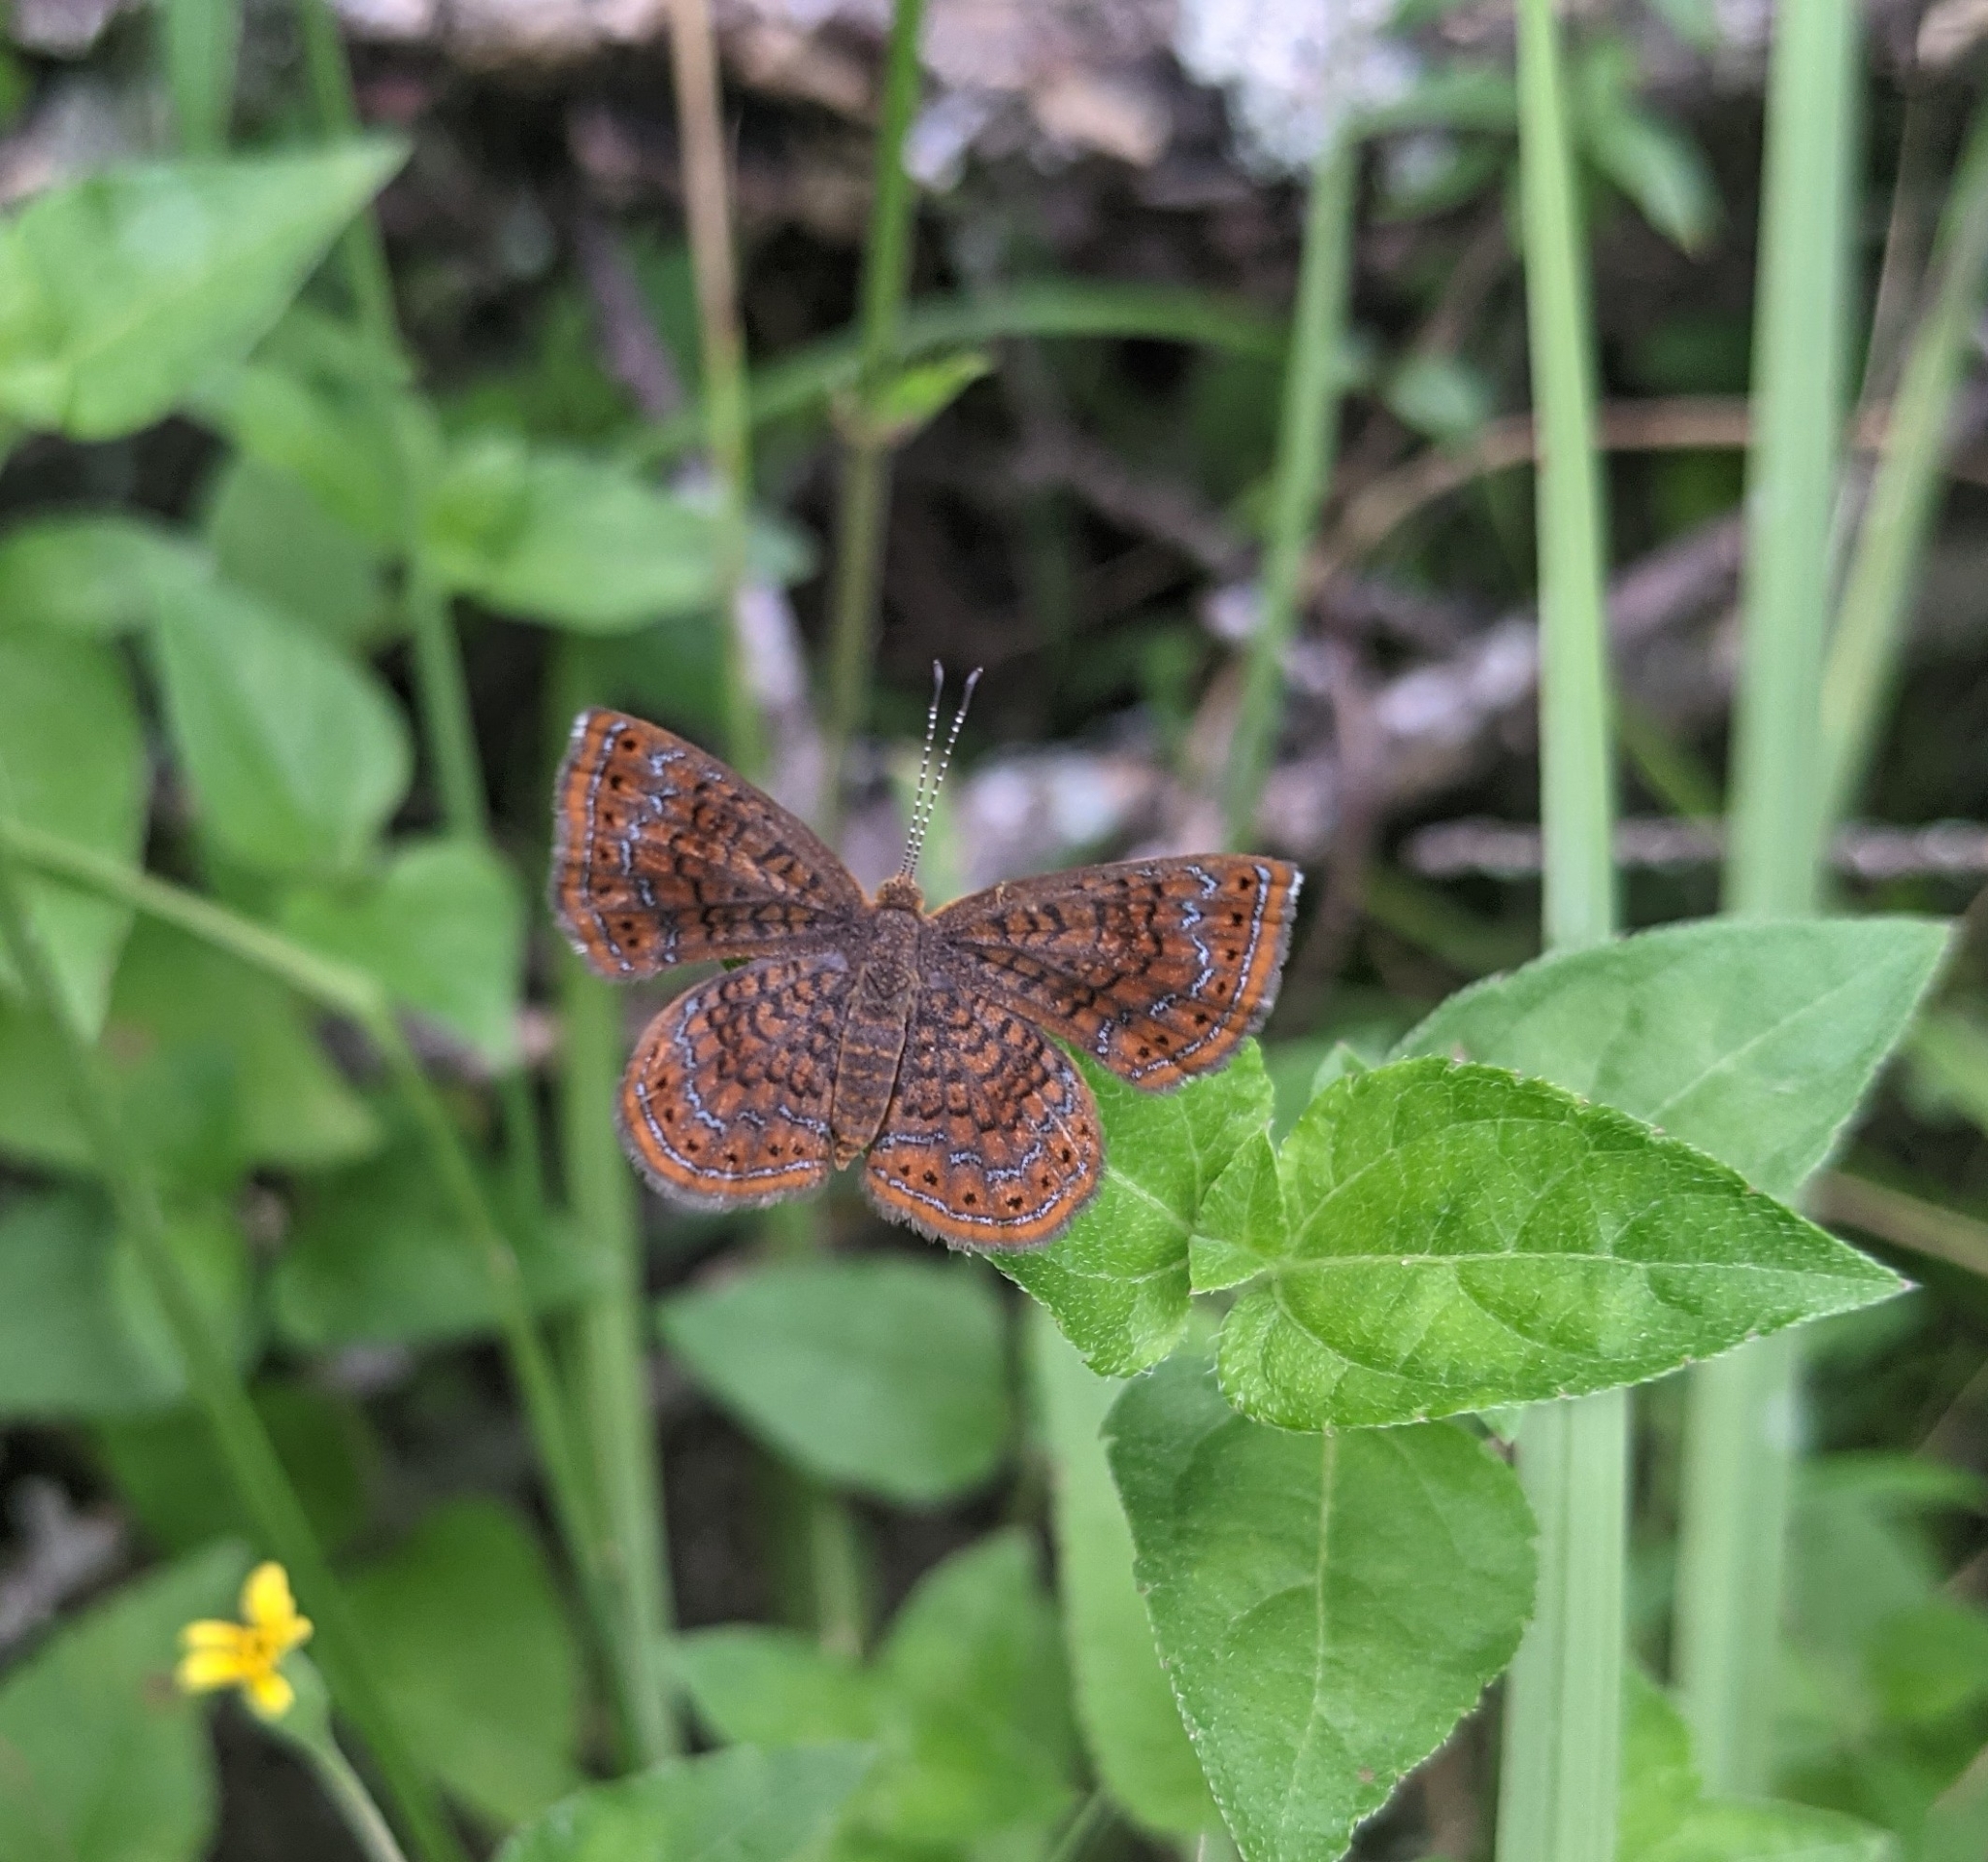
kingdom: Animalia
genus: Calephelis
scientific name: Calephelis perditalis
